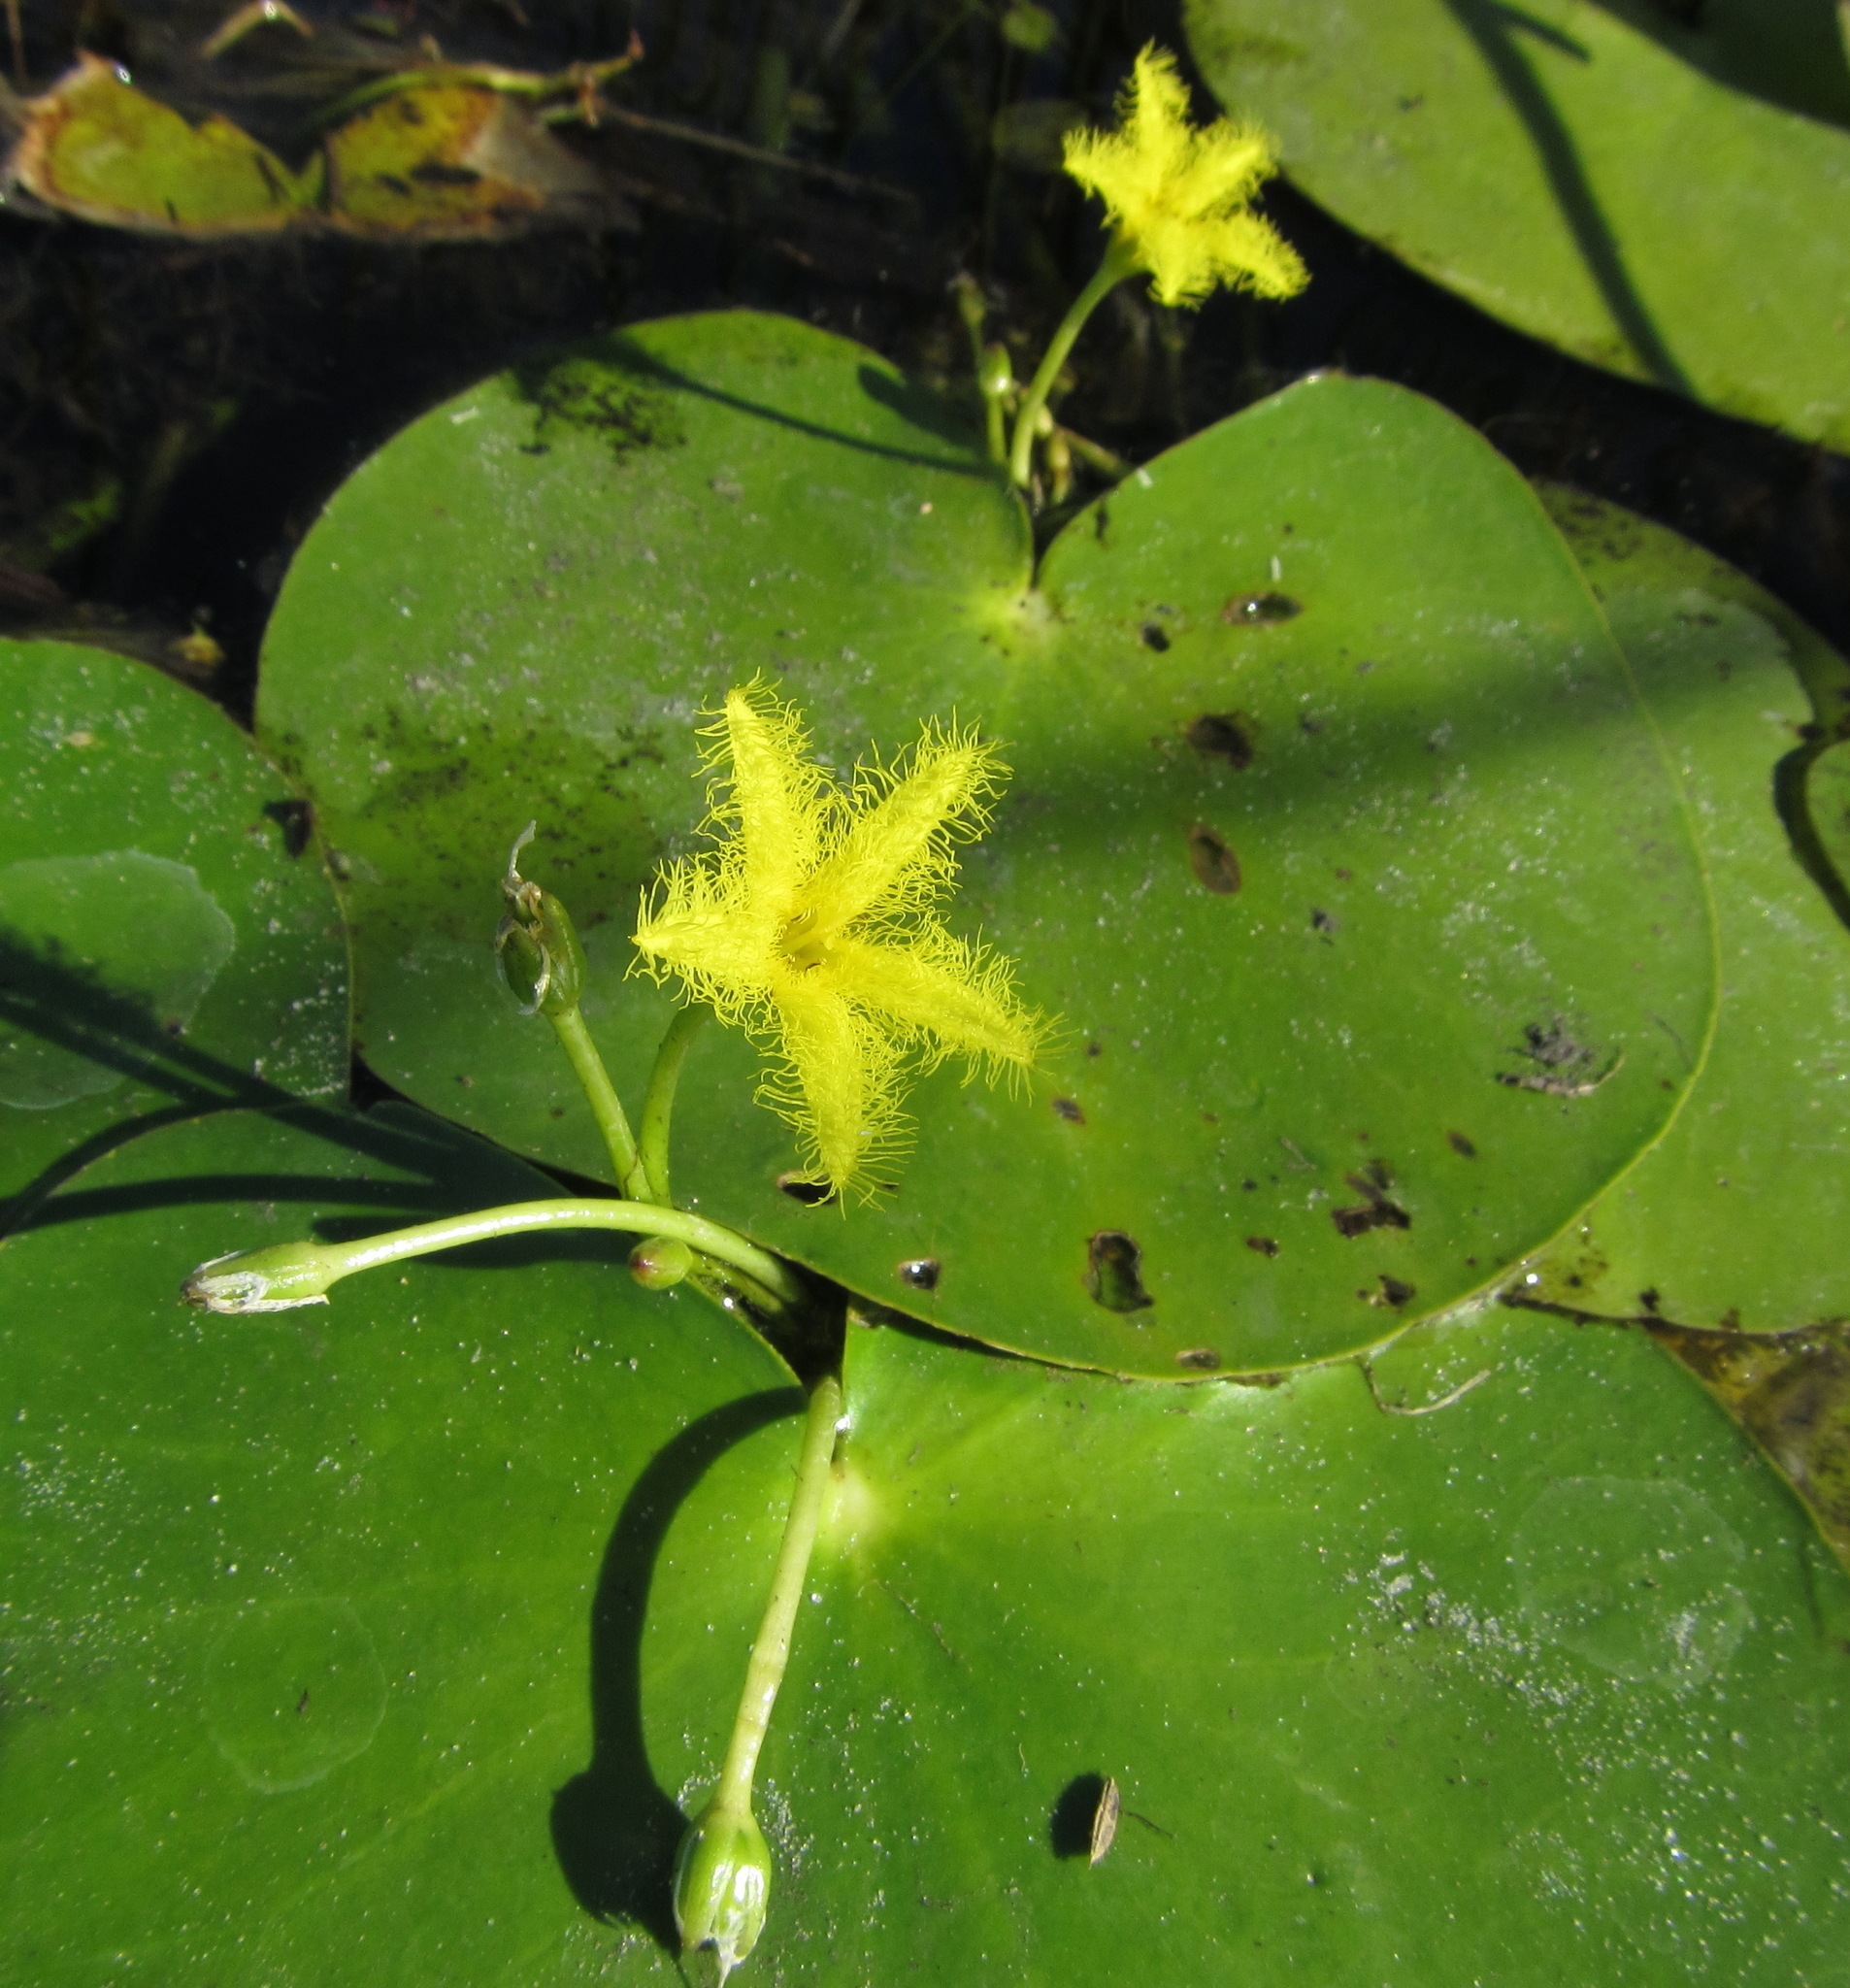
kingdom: Plantae
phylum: Tracheophyta
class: Magnoliopsida
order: Asterales
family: Menyanthaceae
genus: Nymphoides
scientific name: Nymphoides forbesiana
